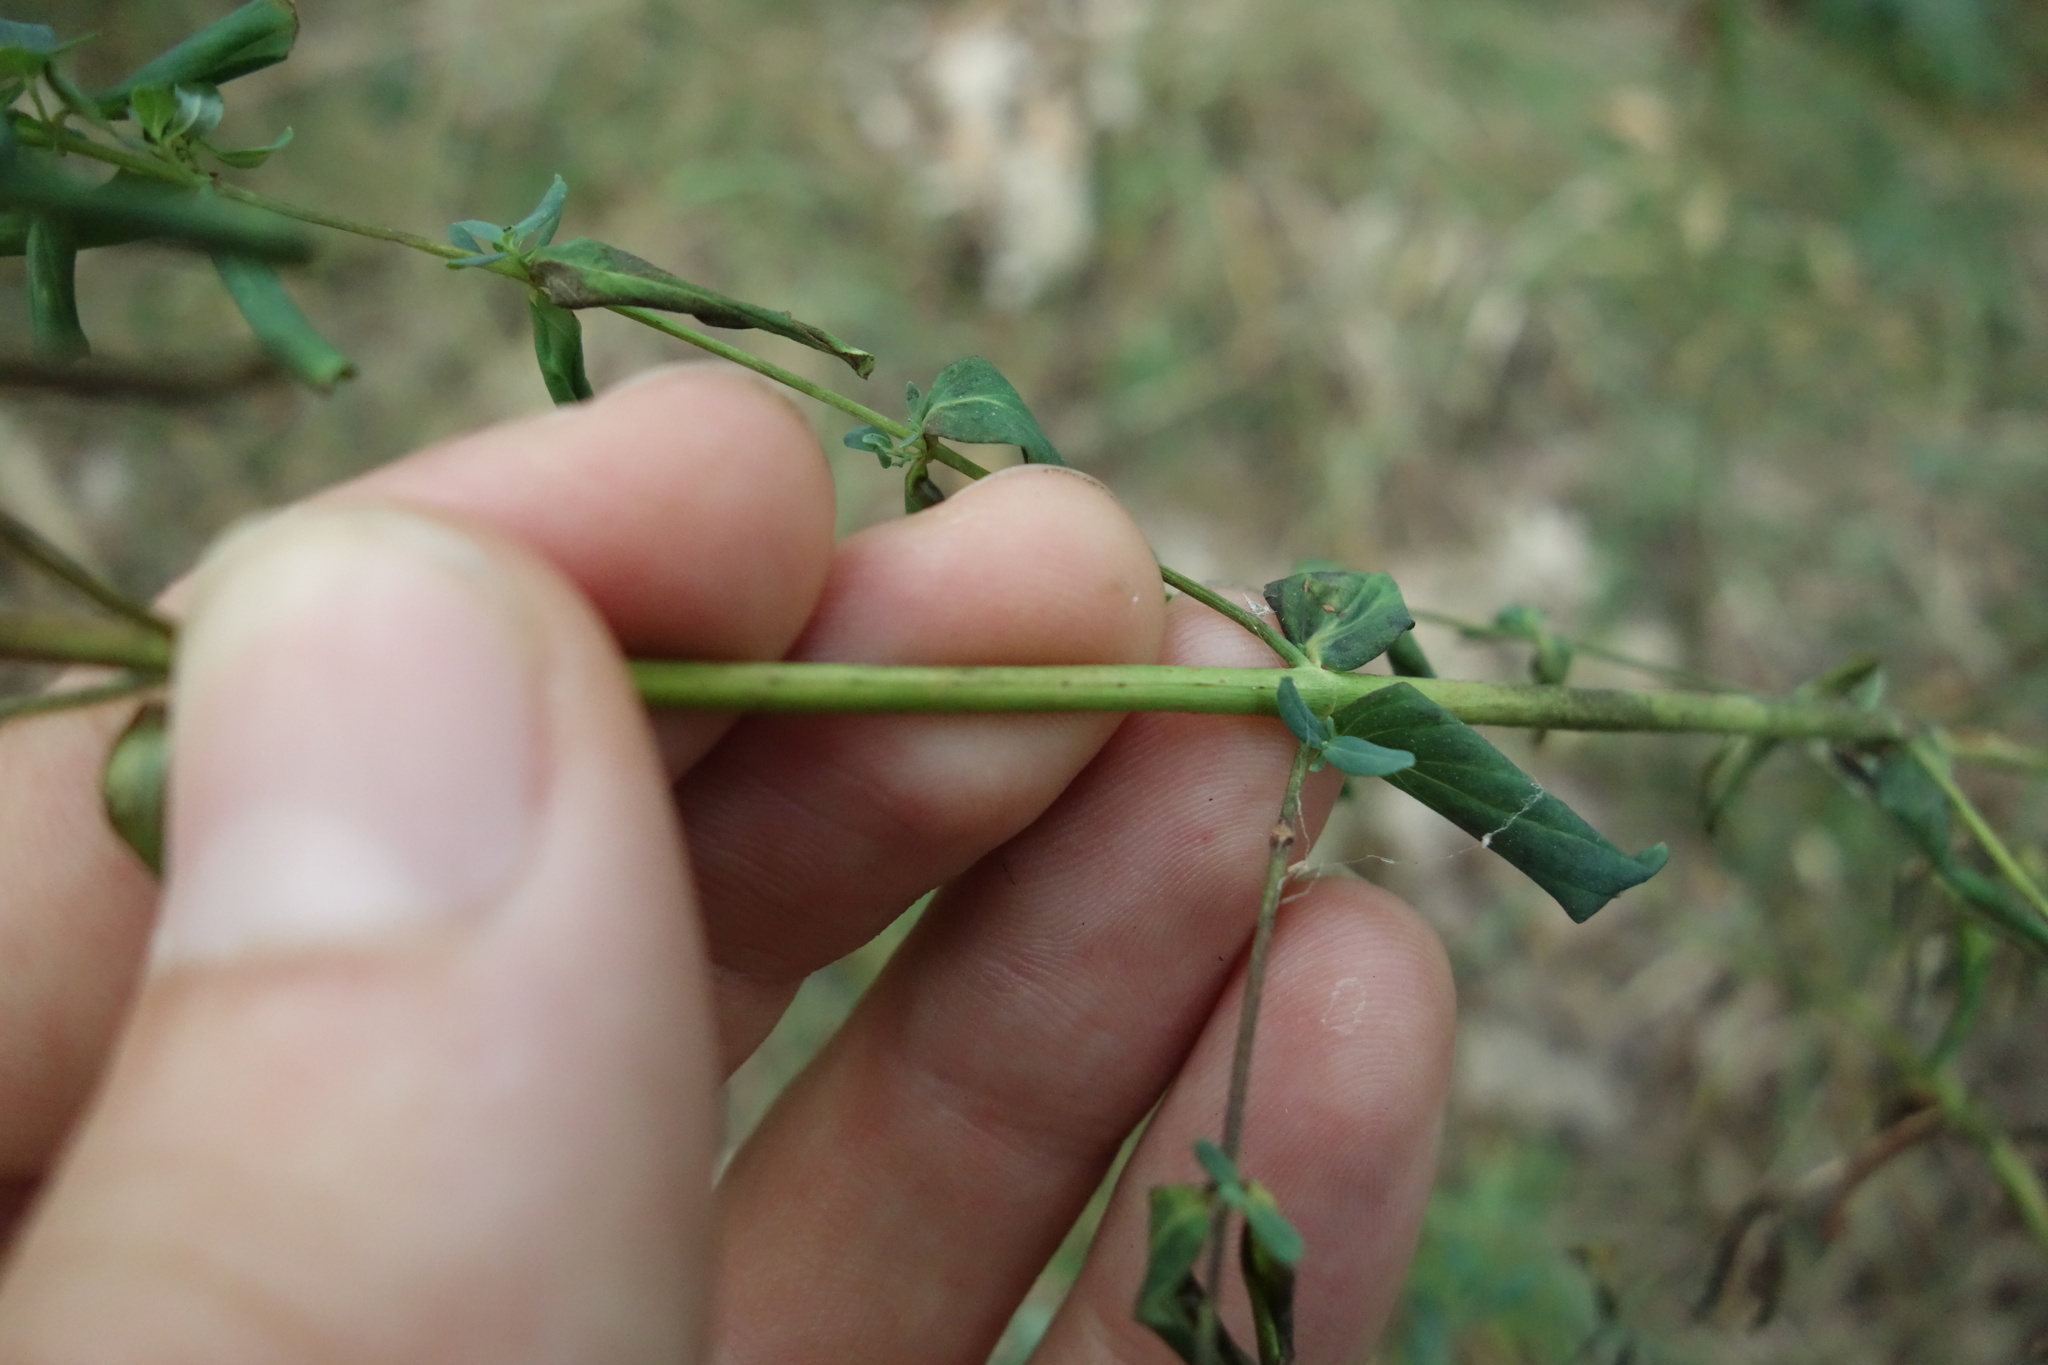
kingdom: Plantae
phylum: Tracheophyta
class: Magnoliopsida
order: Malpighiales
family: Hypericaceae
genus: Hypericum
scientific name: Hypericum perforatum
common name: Common st. johnswort
